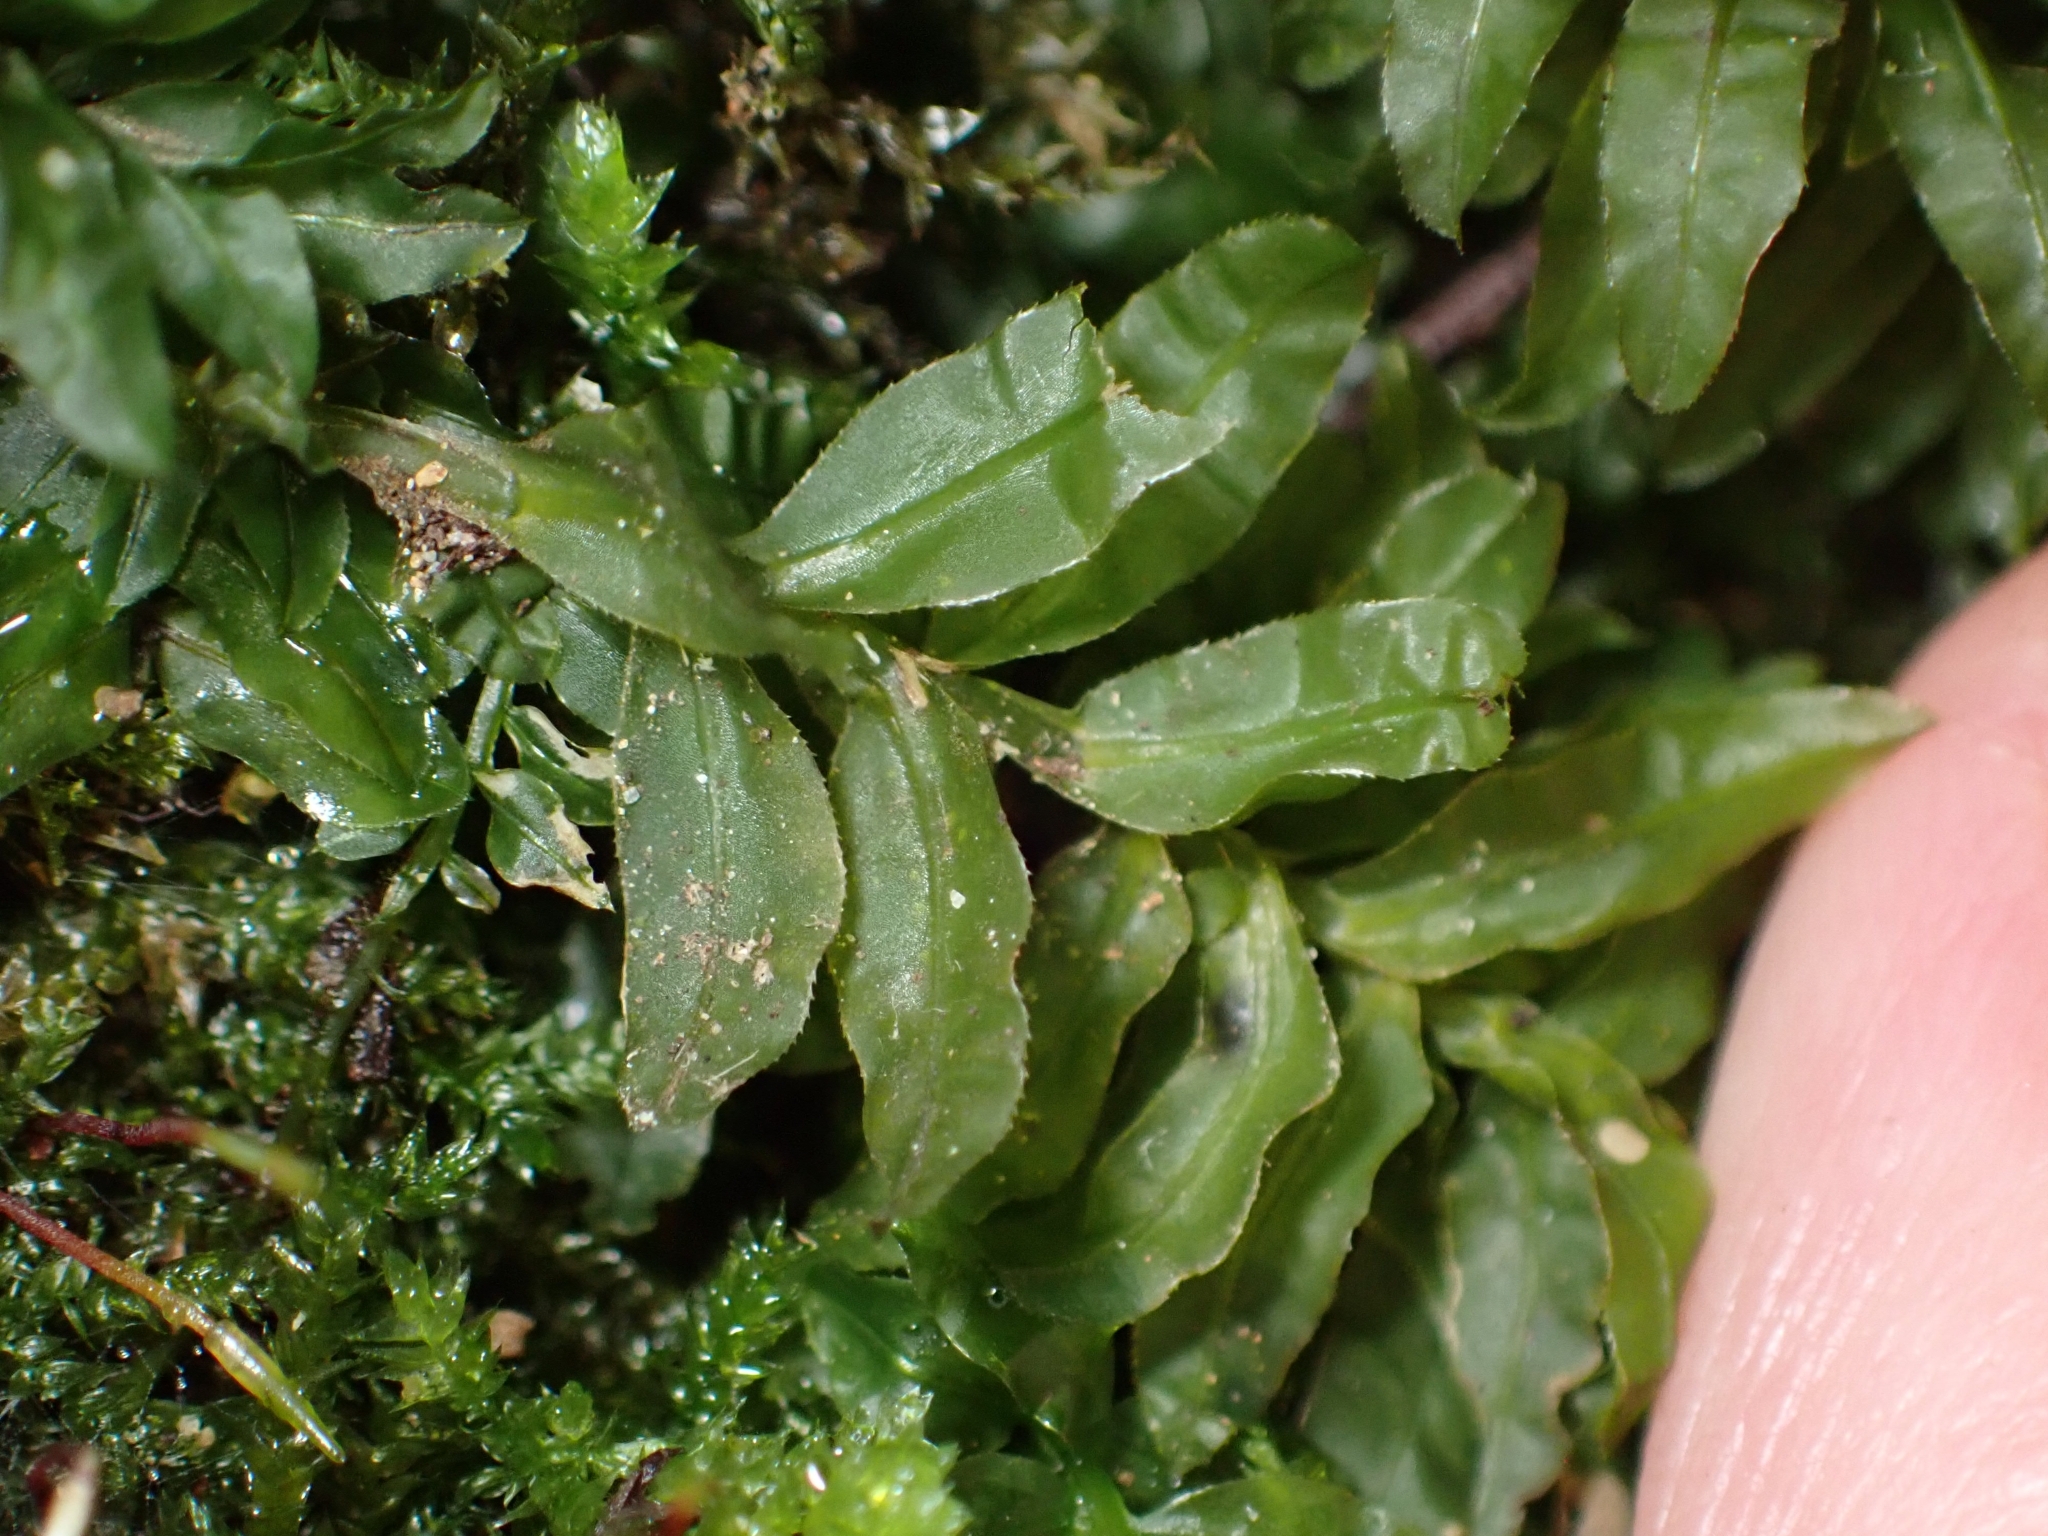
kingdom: Plantae
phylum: Bryophyta
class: Bryopsida
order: Bryales
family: Mniaceae
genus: Plagiomnium
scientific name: Plagiomnium undulatum
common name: Hart's-tongue thyme-moss
